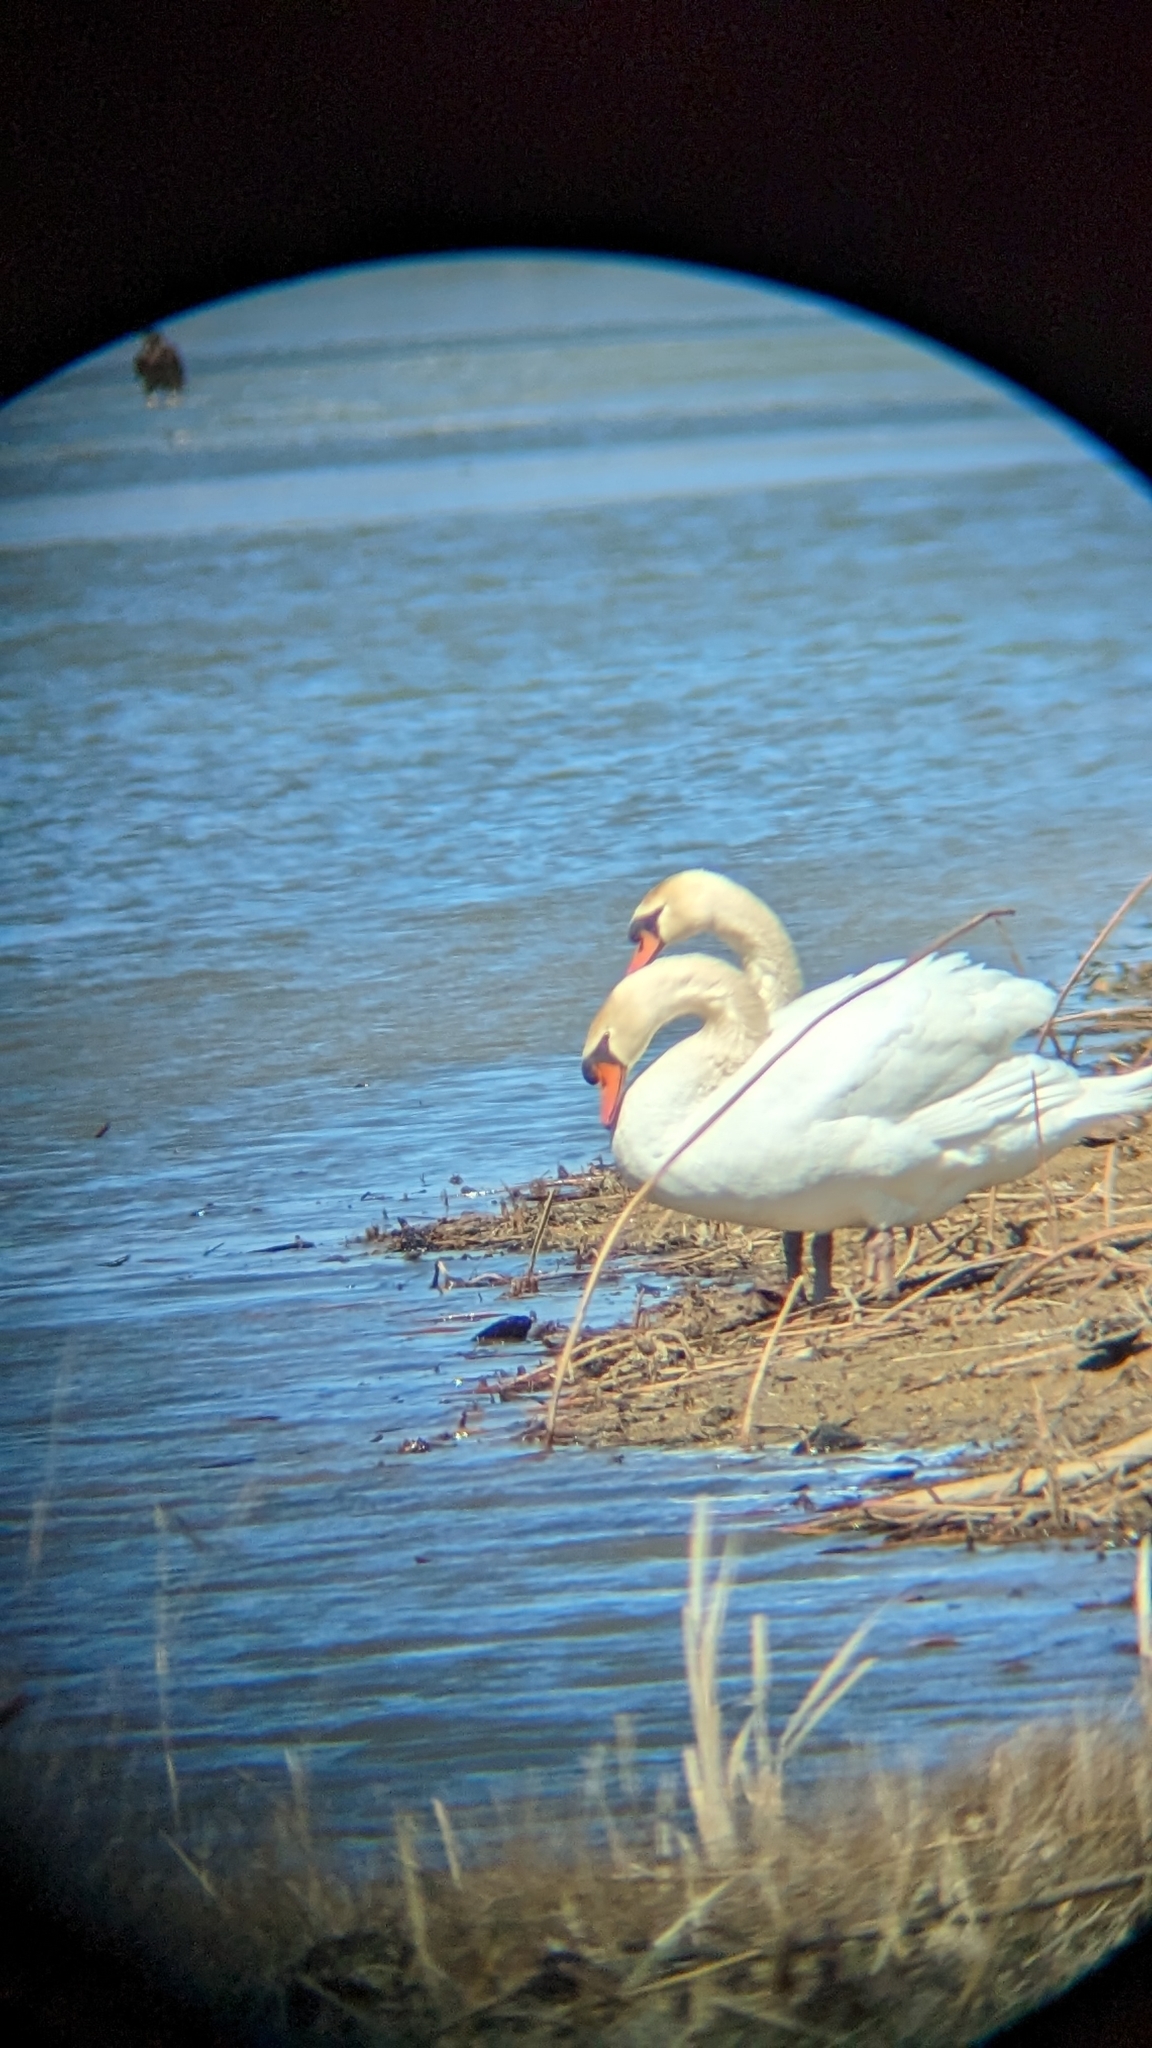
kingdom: Animalia
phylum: Chordata
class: Aves
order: Anseriformes
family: Anatidae
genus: Cygnus
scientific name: Cygnus olor
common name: Mute swan
